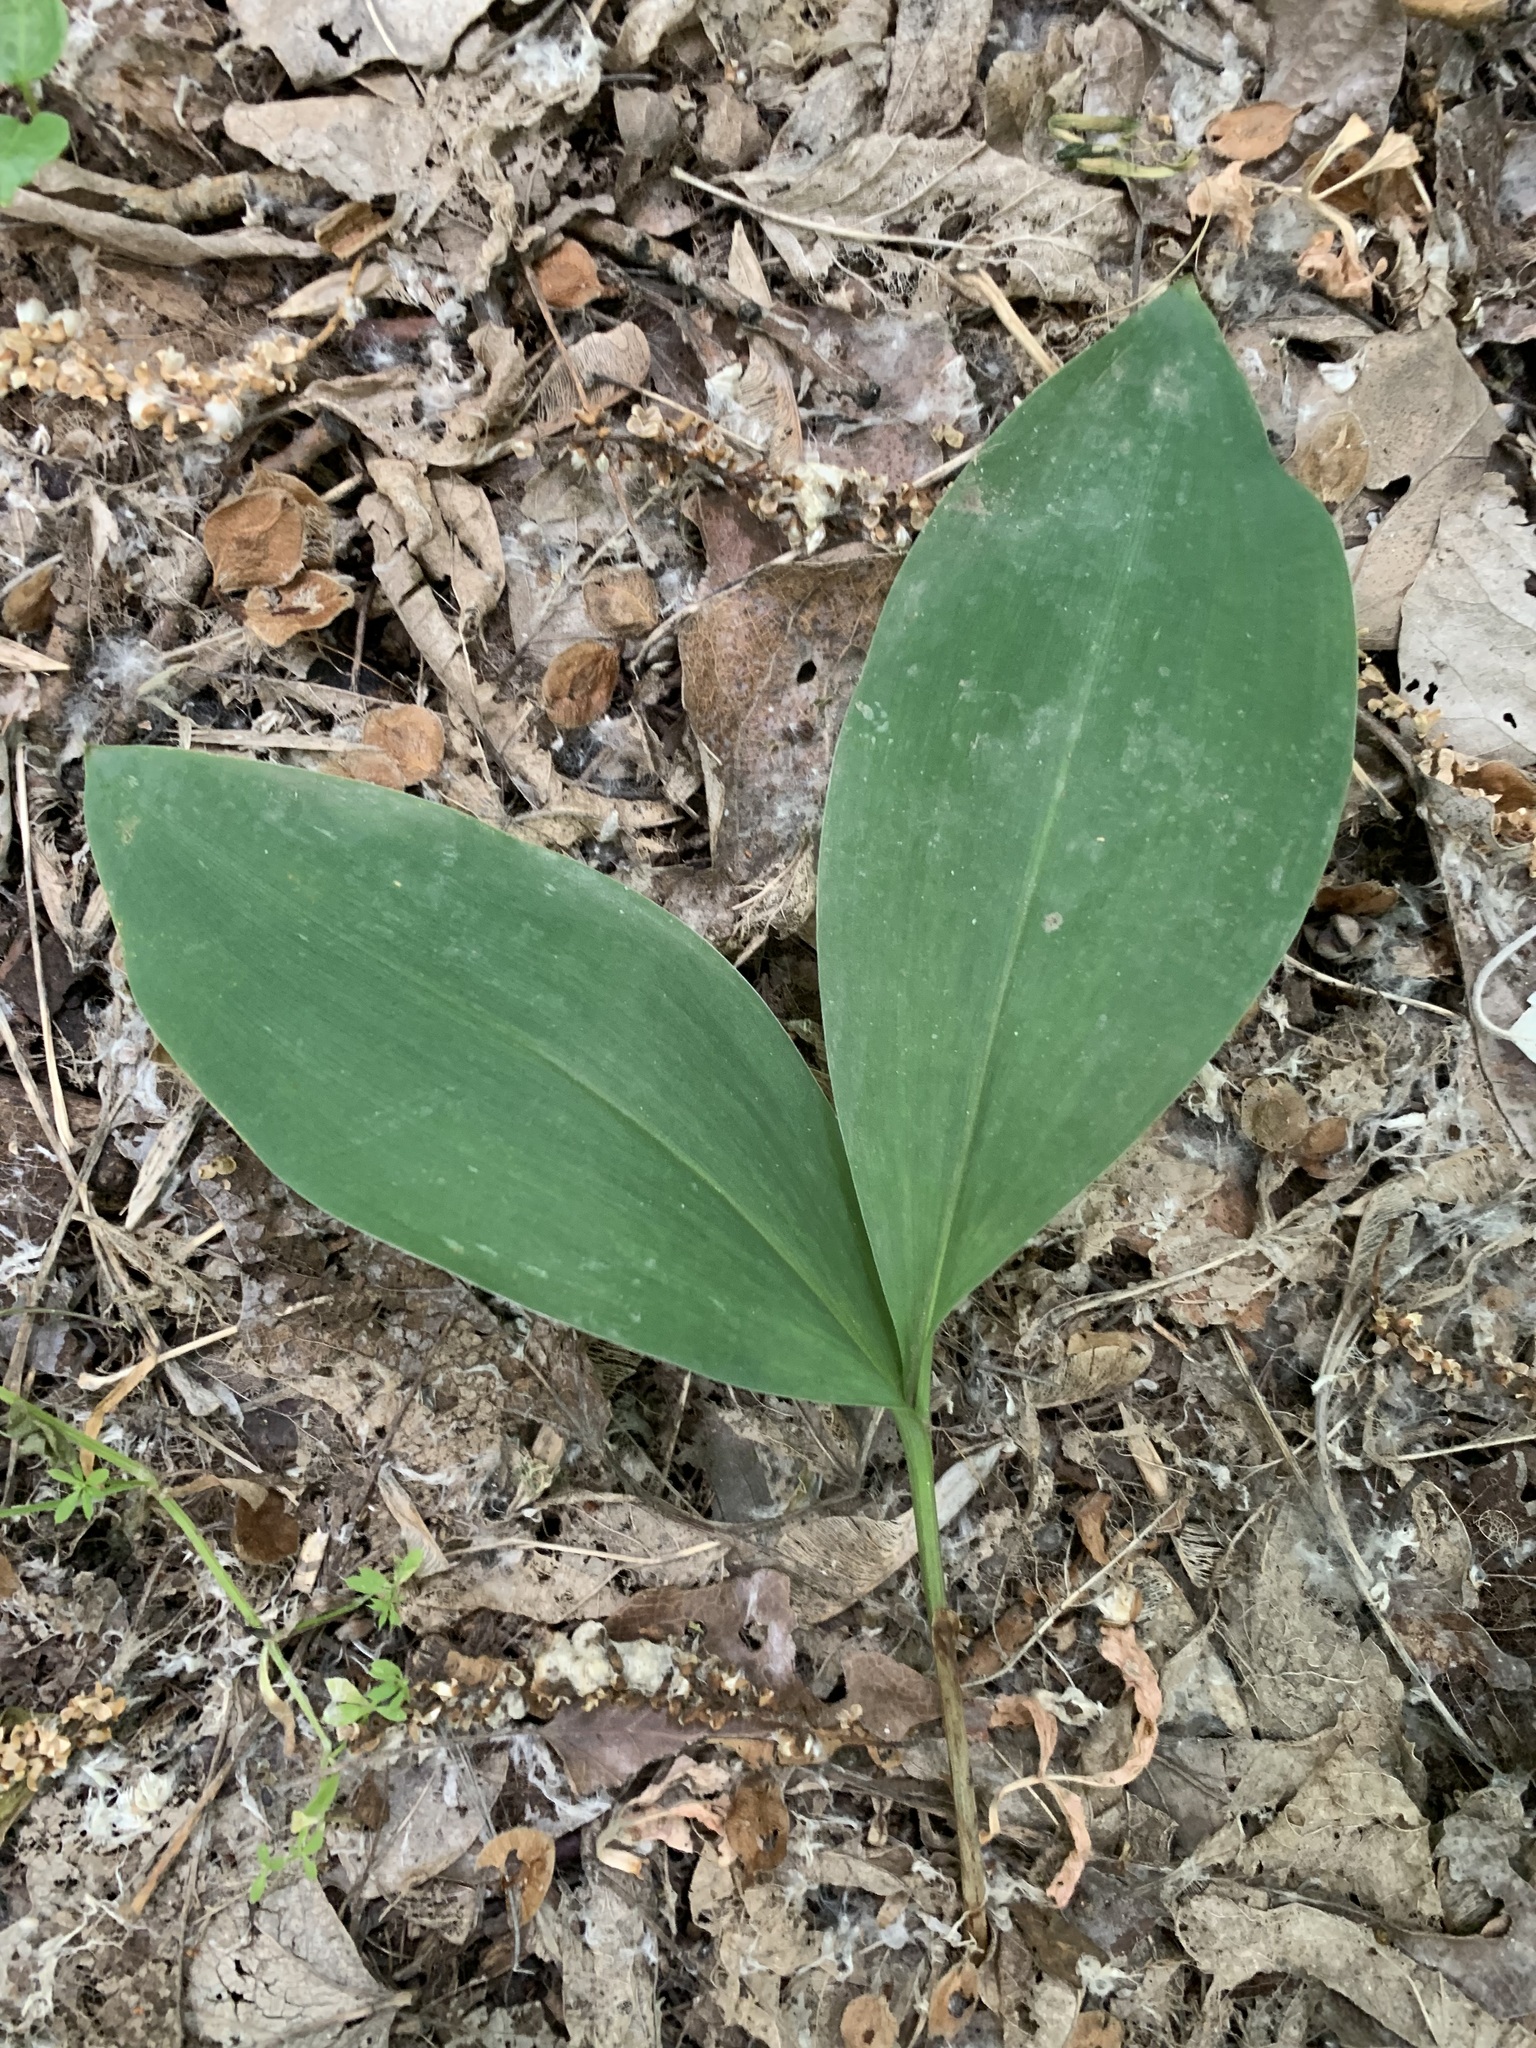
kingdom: Plantae
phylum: Tracheophyta
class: Liliopsida
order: Asparagales
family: Asparagaceae
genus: Convallaria
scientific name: Convallaria majalis
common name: Lily-of-the-valley
